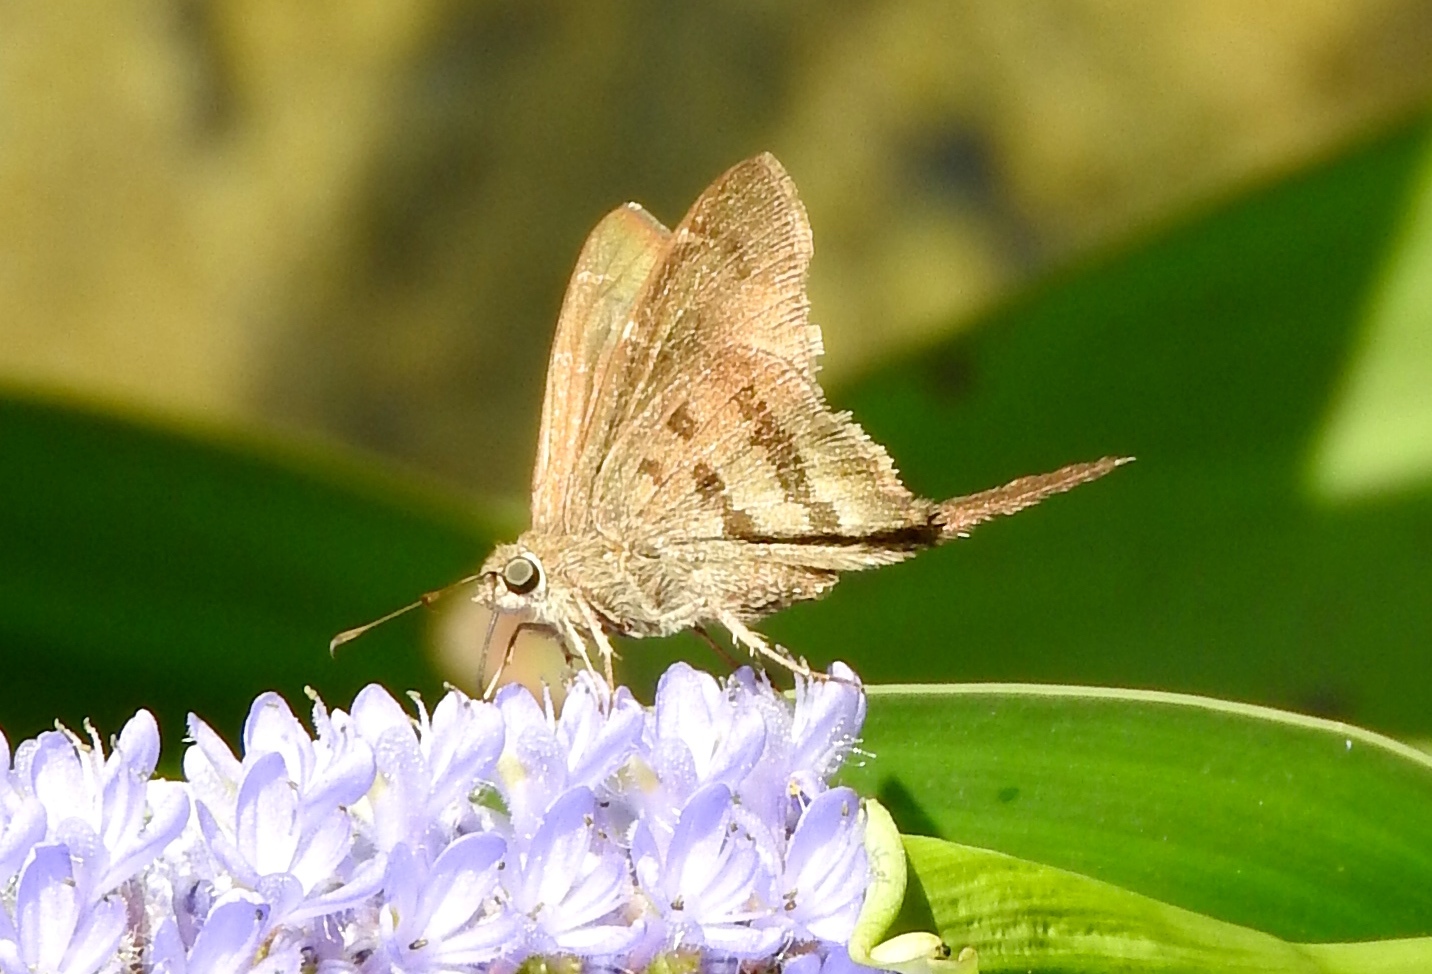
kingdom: Animalia
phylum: Arthropoda
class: Insecta
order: Lepidoptera
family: Hesperiidae
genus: Urbanus
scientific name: Urbanus procne
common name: Brown longtail
